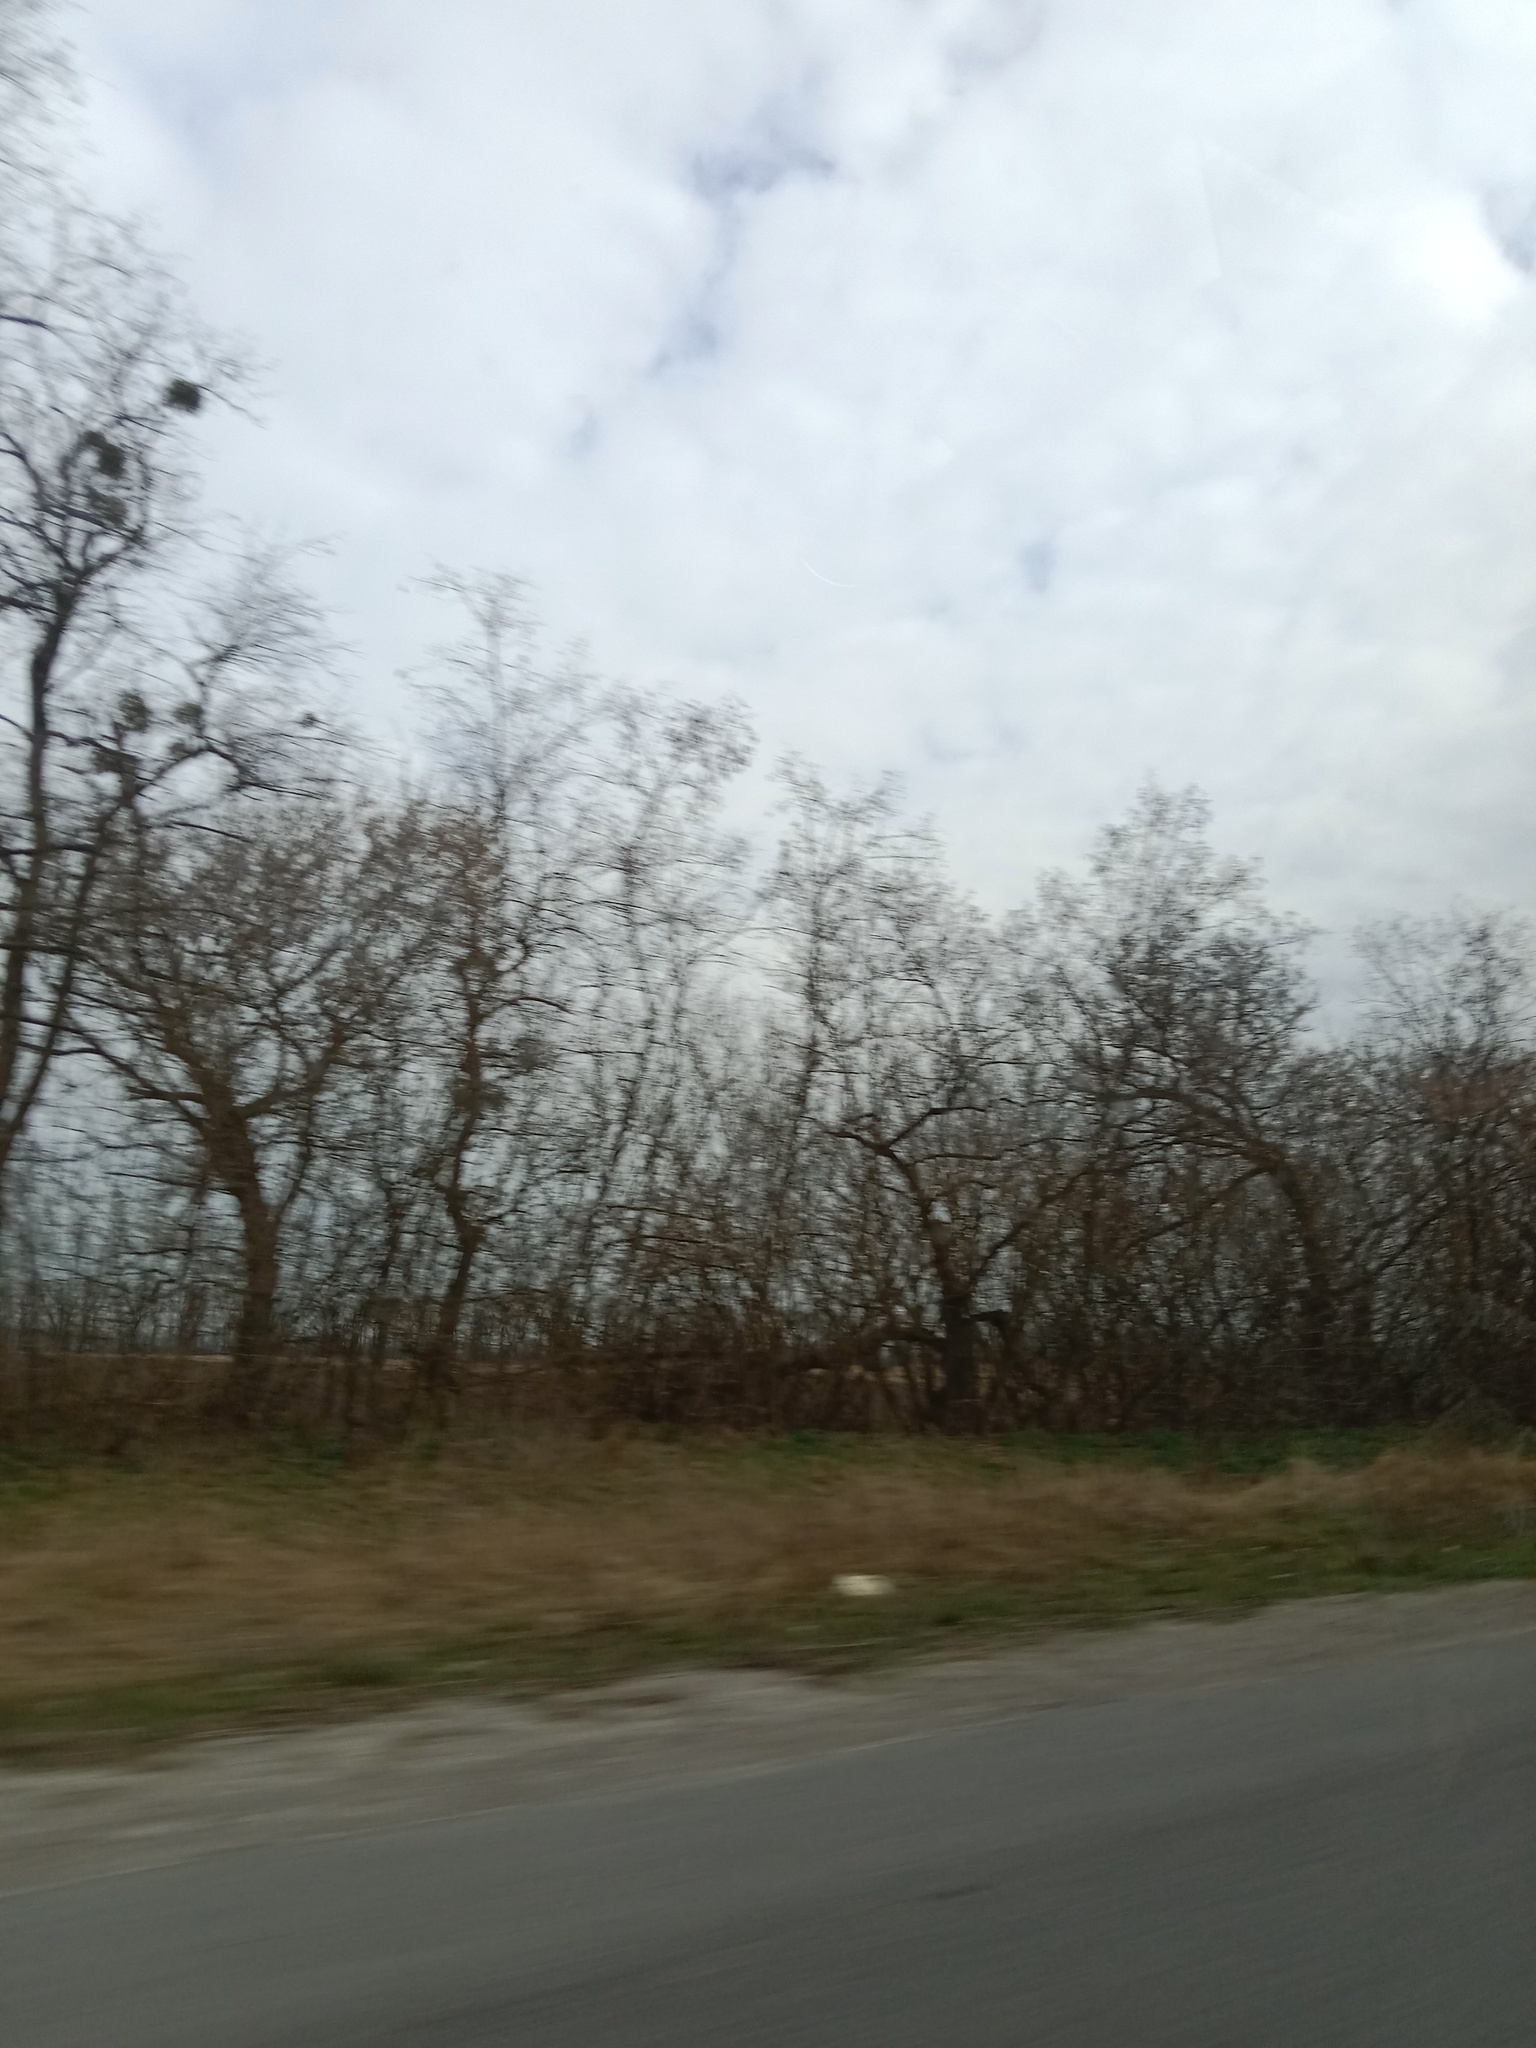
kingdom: Plantae
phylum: Tracheophyta
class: Magnoliopsida
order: Santalales
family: Viscaceae
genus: Viscum
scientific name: Viscum album
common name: Mistletoe
